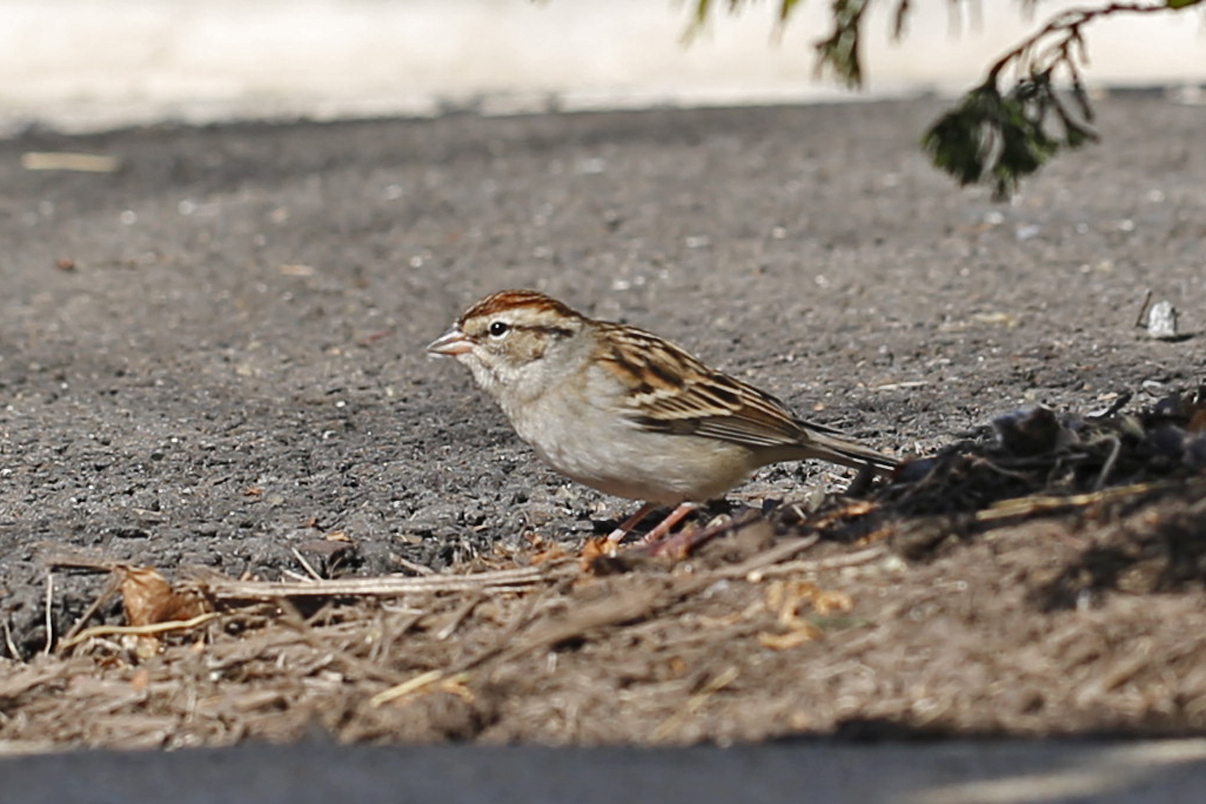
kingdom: Animalia
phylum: Chordata
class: Aves
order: Passeriformes
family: Passerellidae
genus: Spizella
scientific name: Spizella passerina
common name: Chipping sparrow
